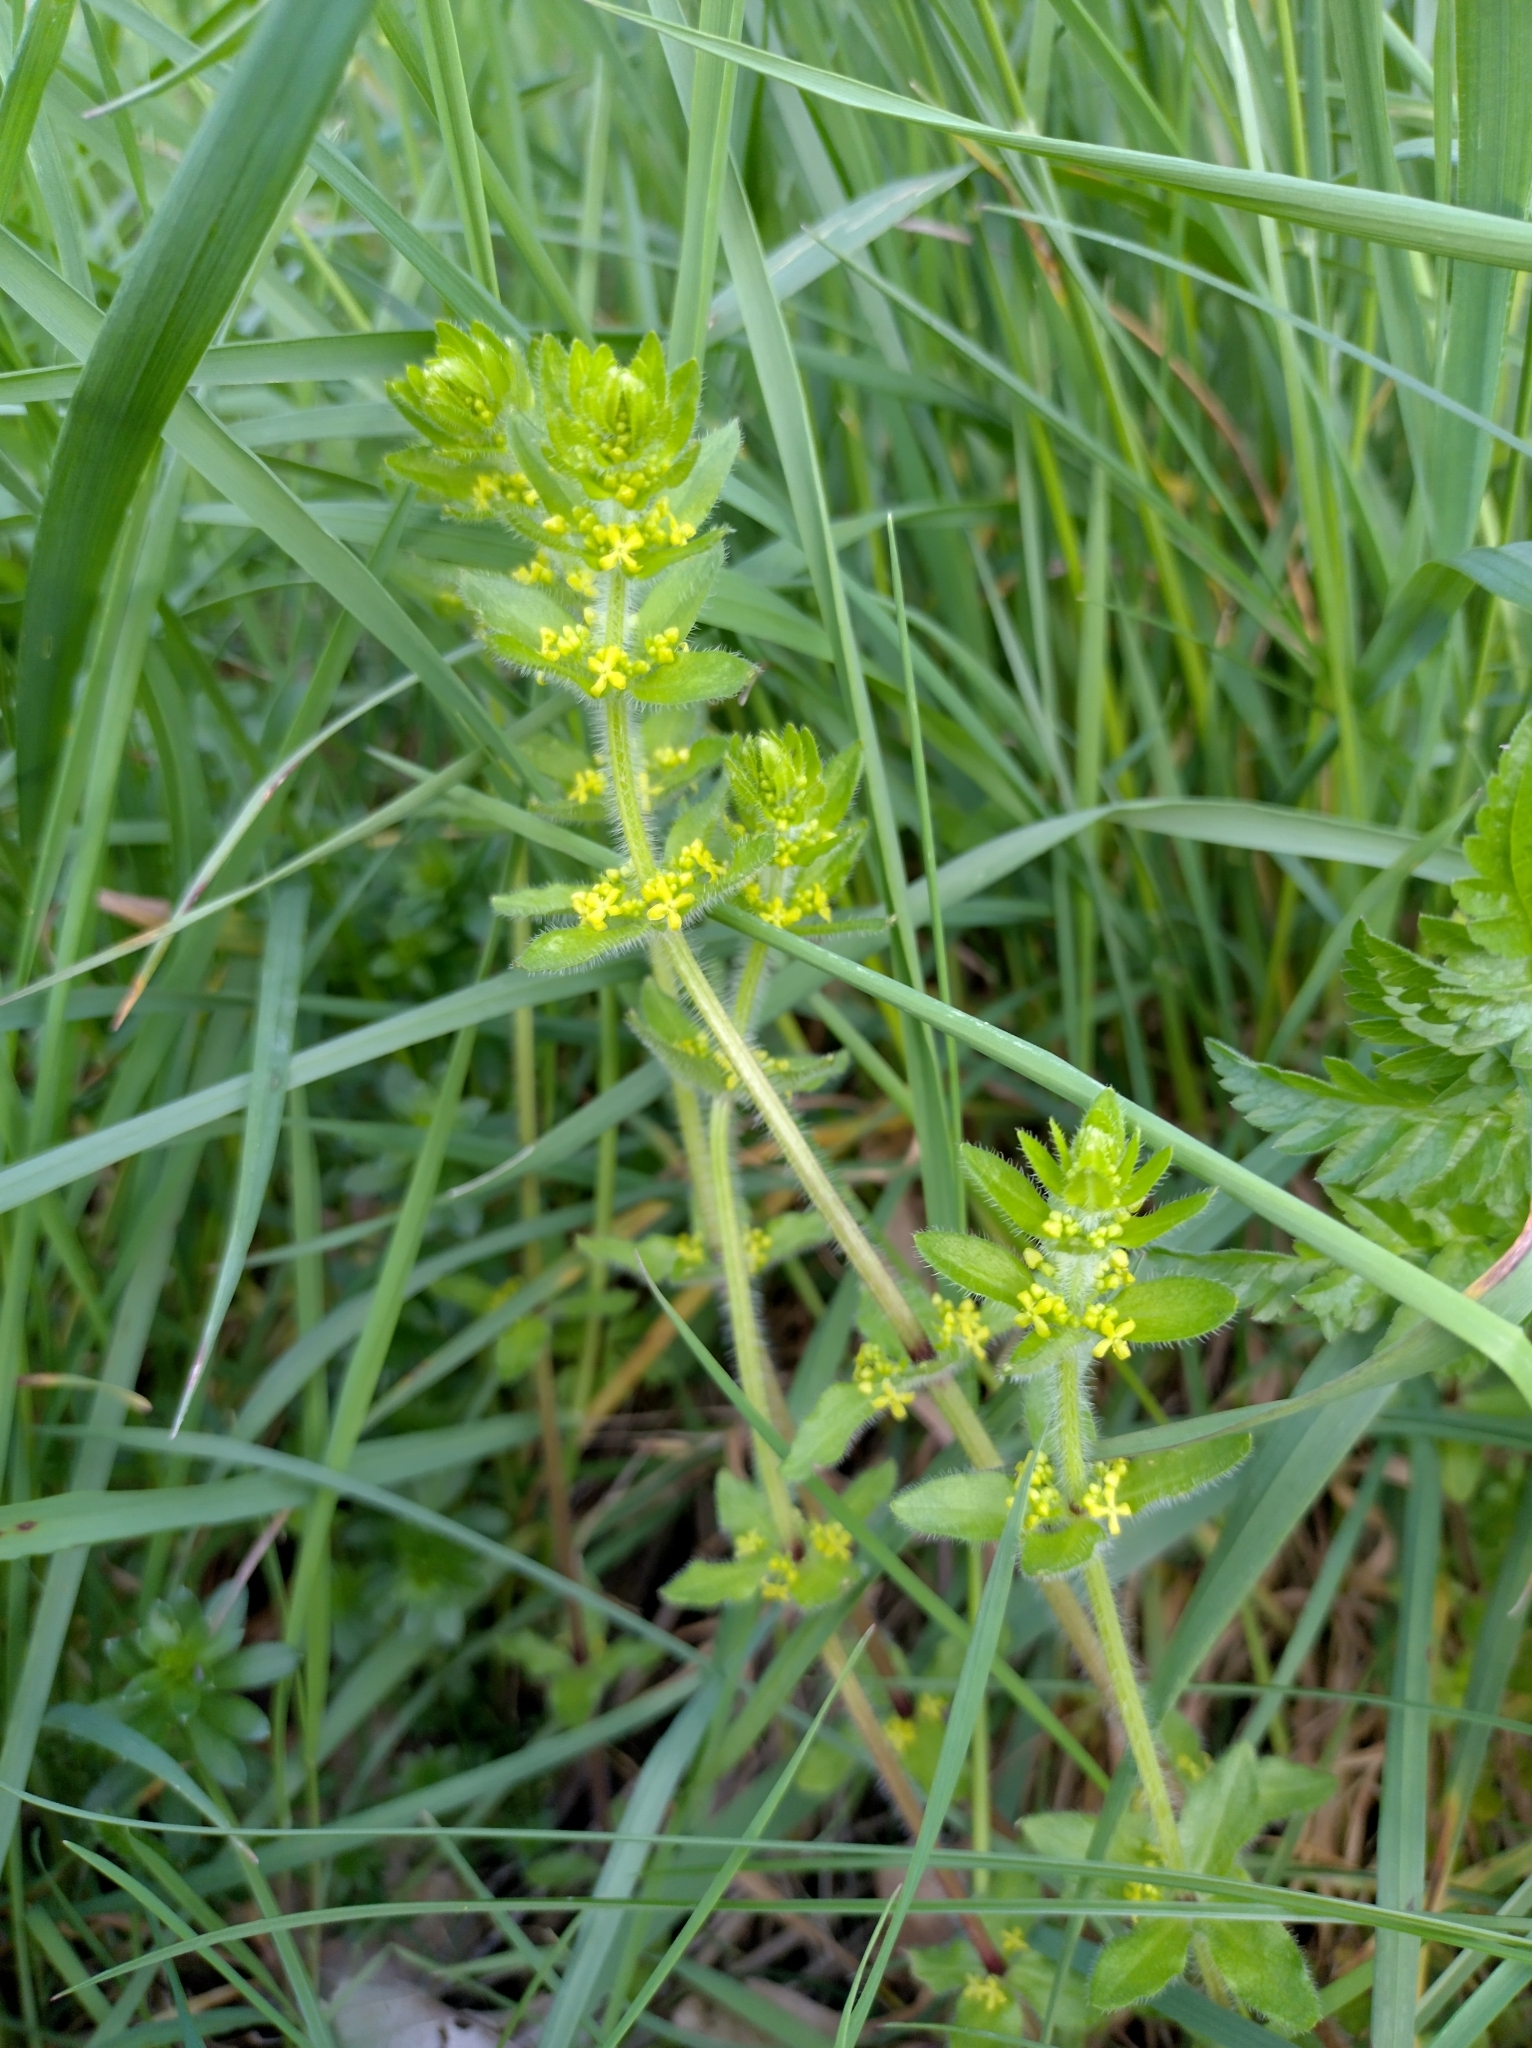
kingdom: Plantae
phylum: Tracheophyta
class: Magnoliopsida
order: Gentianales
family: Rubiaceae
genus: Cruciata
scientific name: Cruciata laevipes
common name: Crosswort
